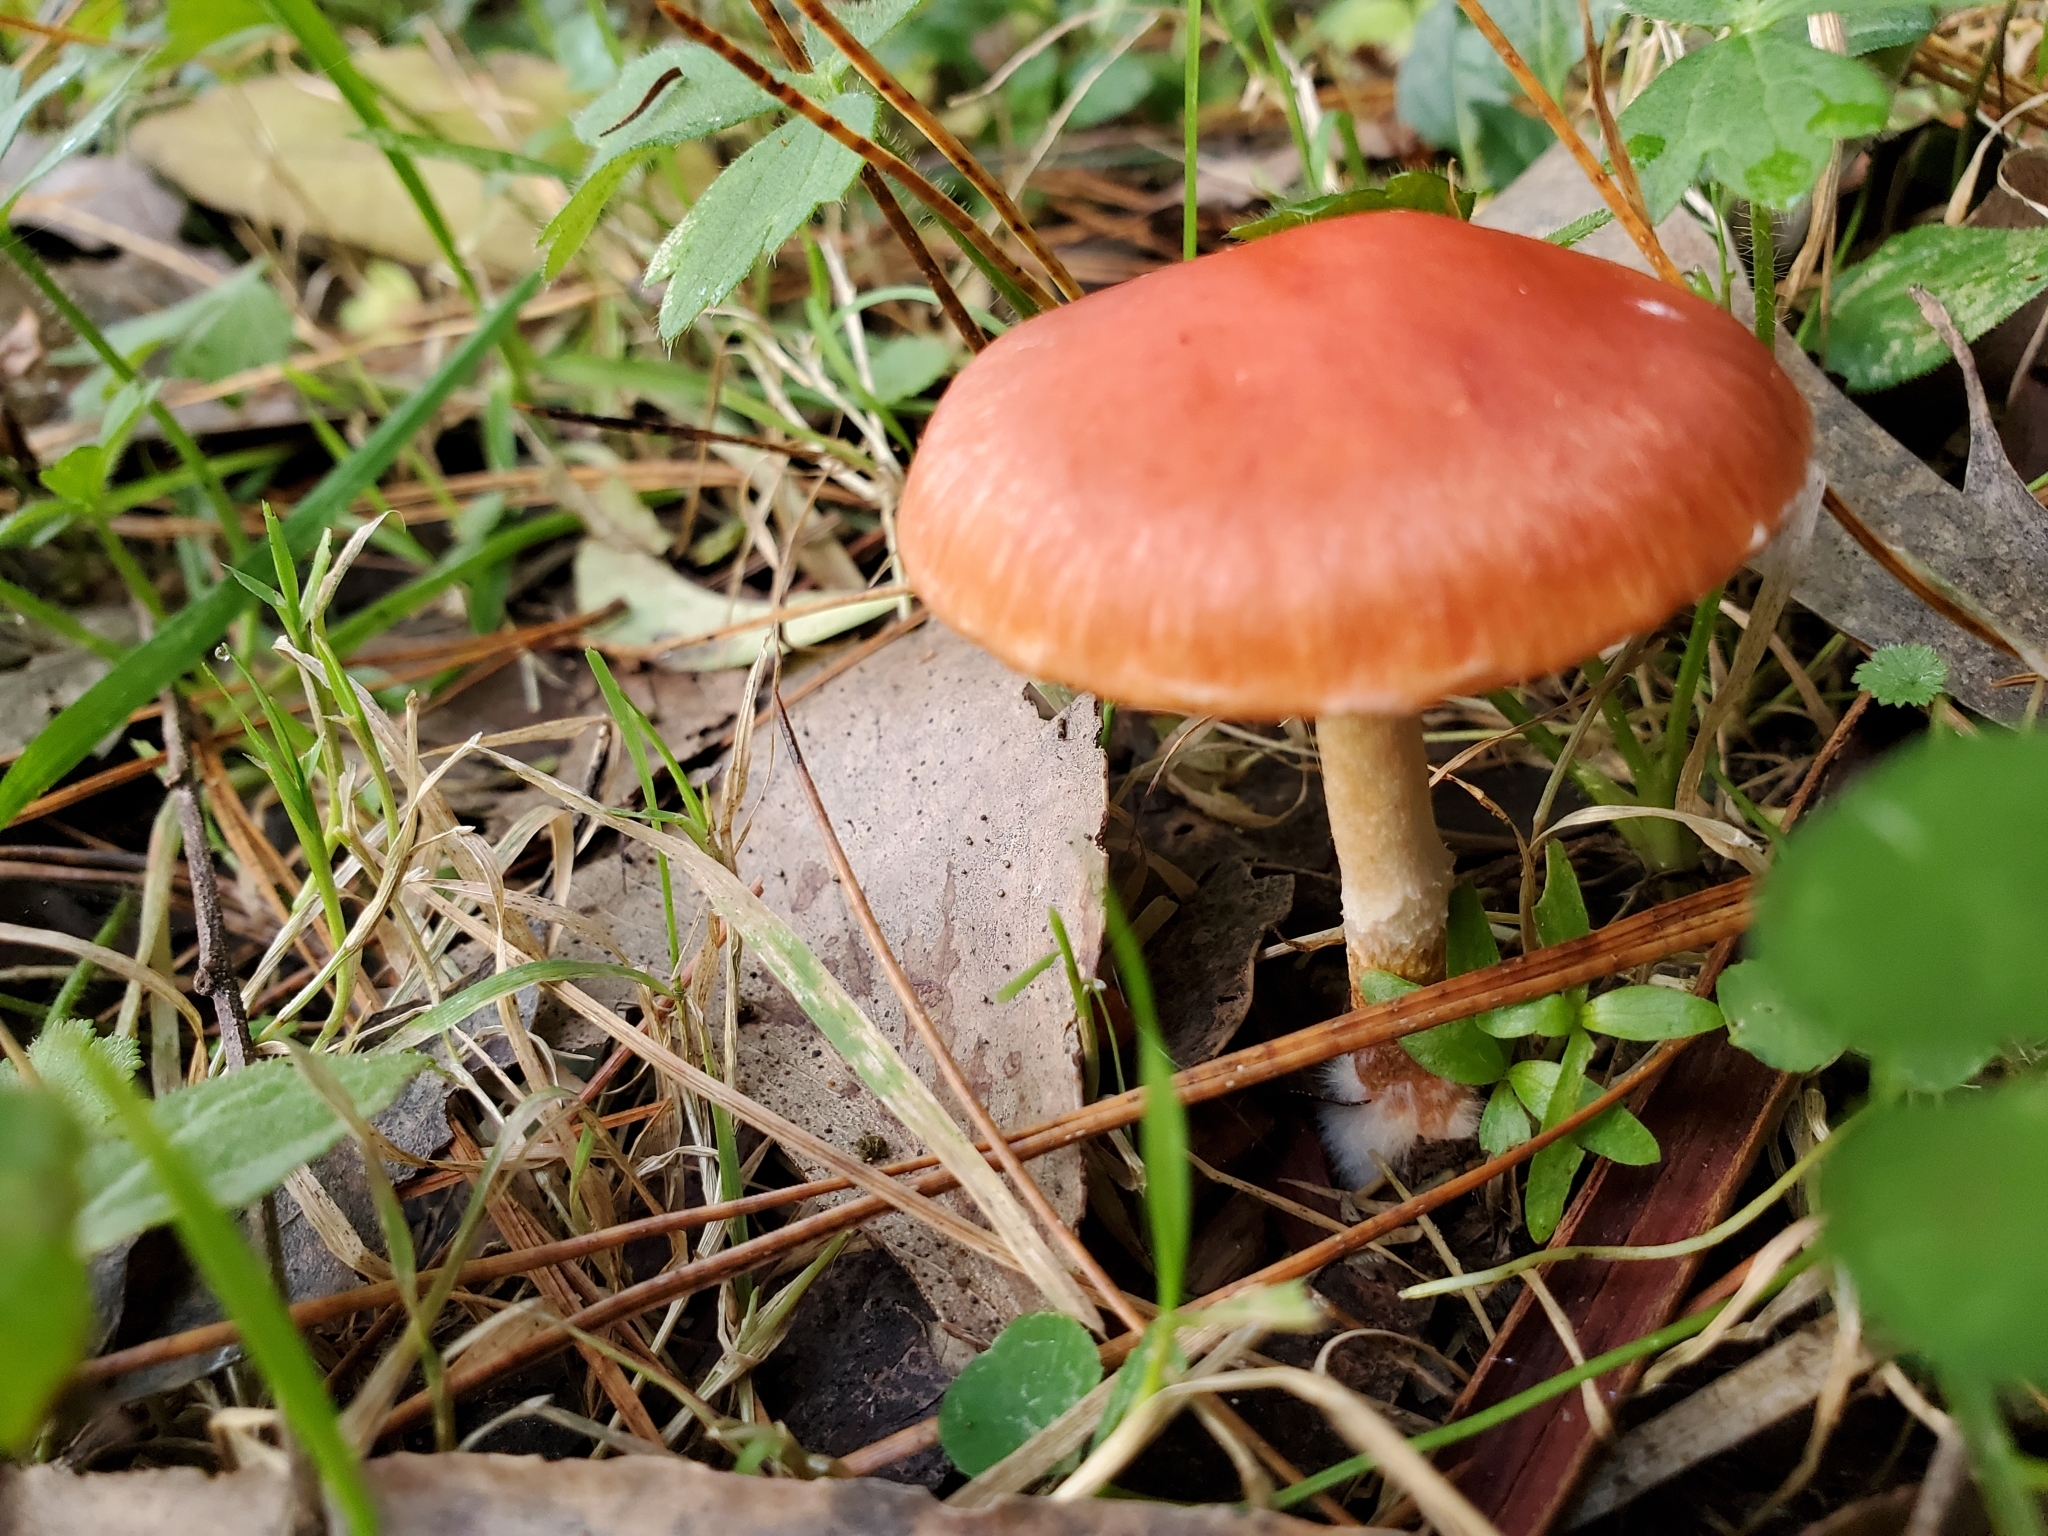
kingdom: Fungi
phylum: Basidiomycota
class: Agaricomycetes
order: Agaricales
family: Strophariaceae
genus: Leratiomyces
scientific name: Leratiomyces ceres
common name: Redlead roundhead
